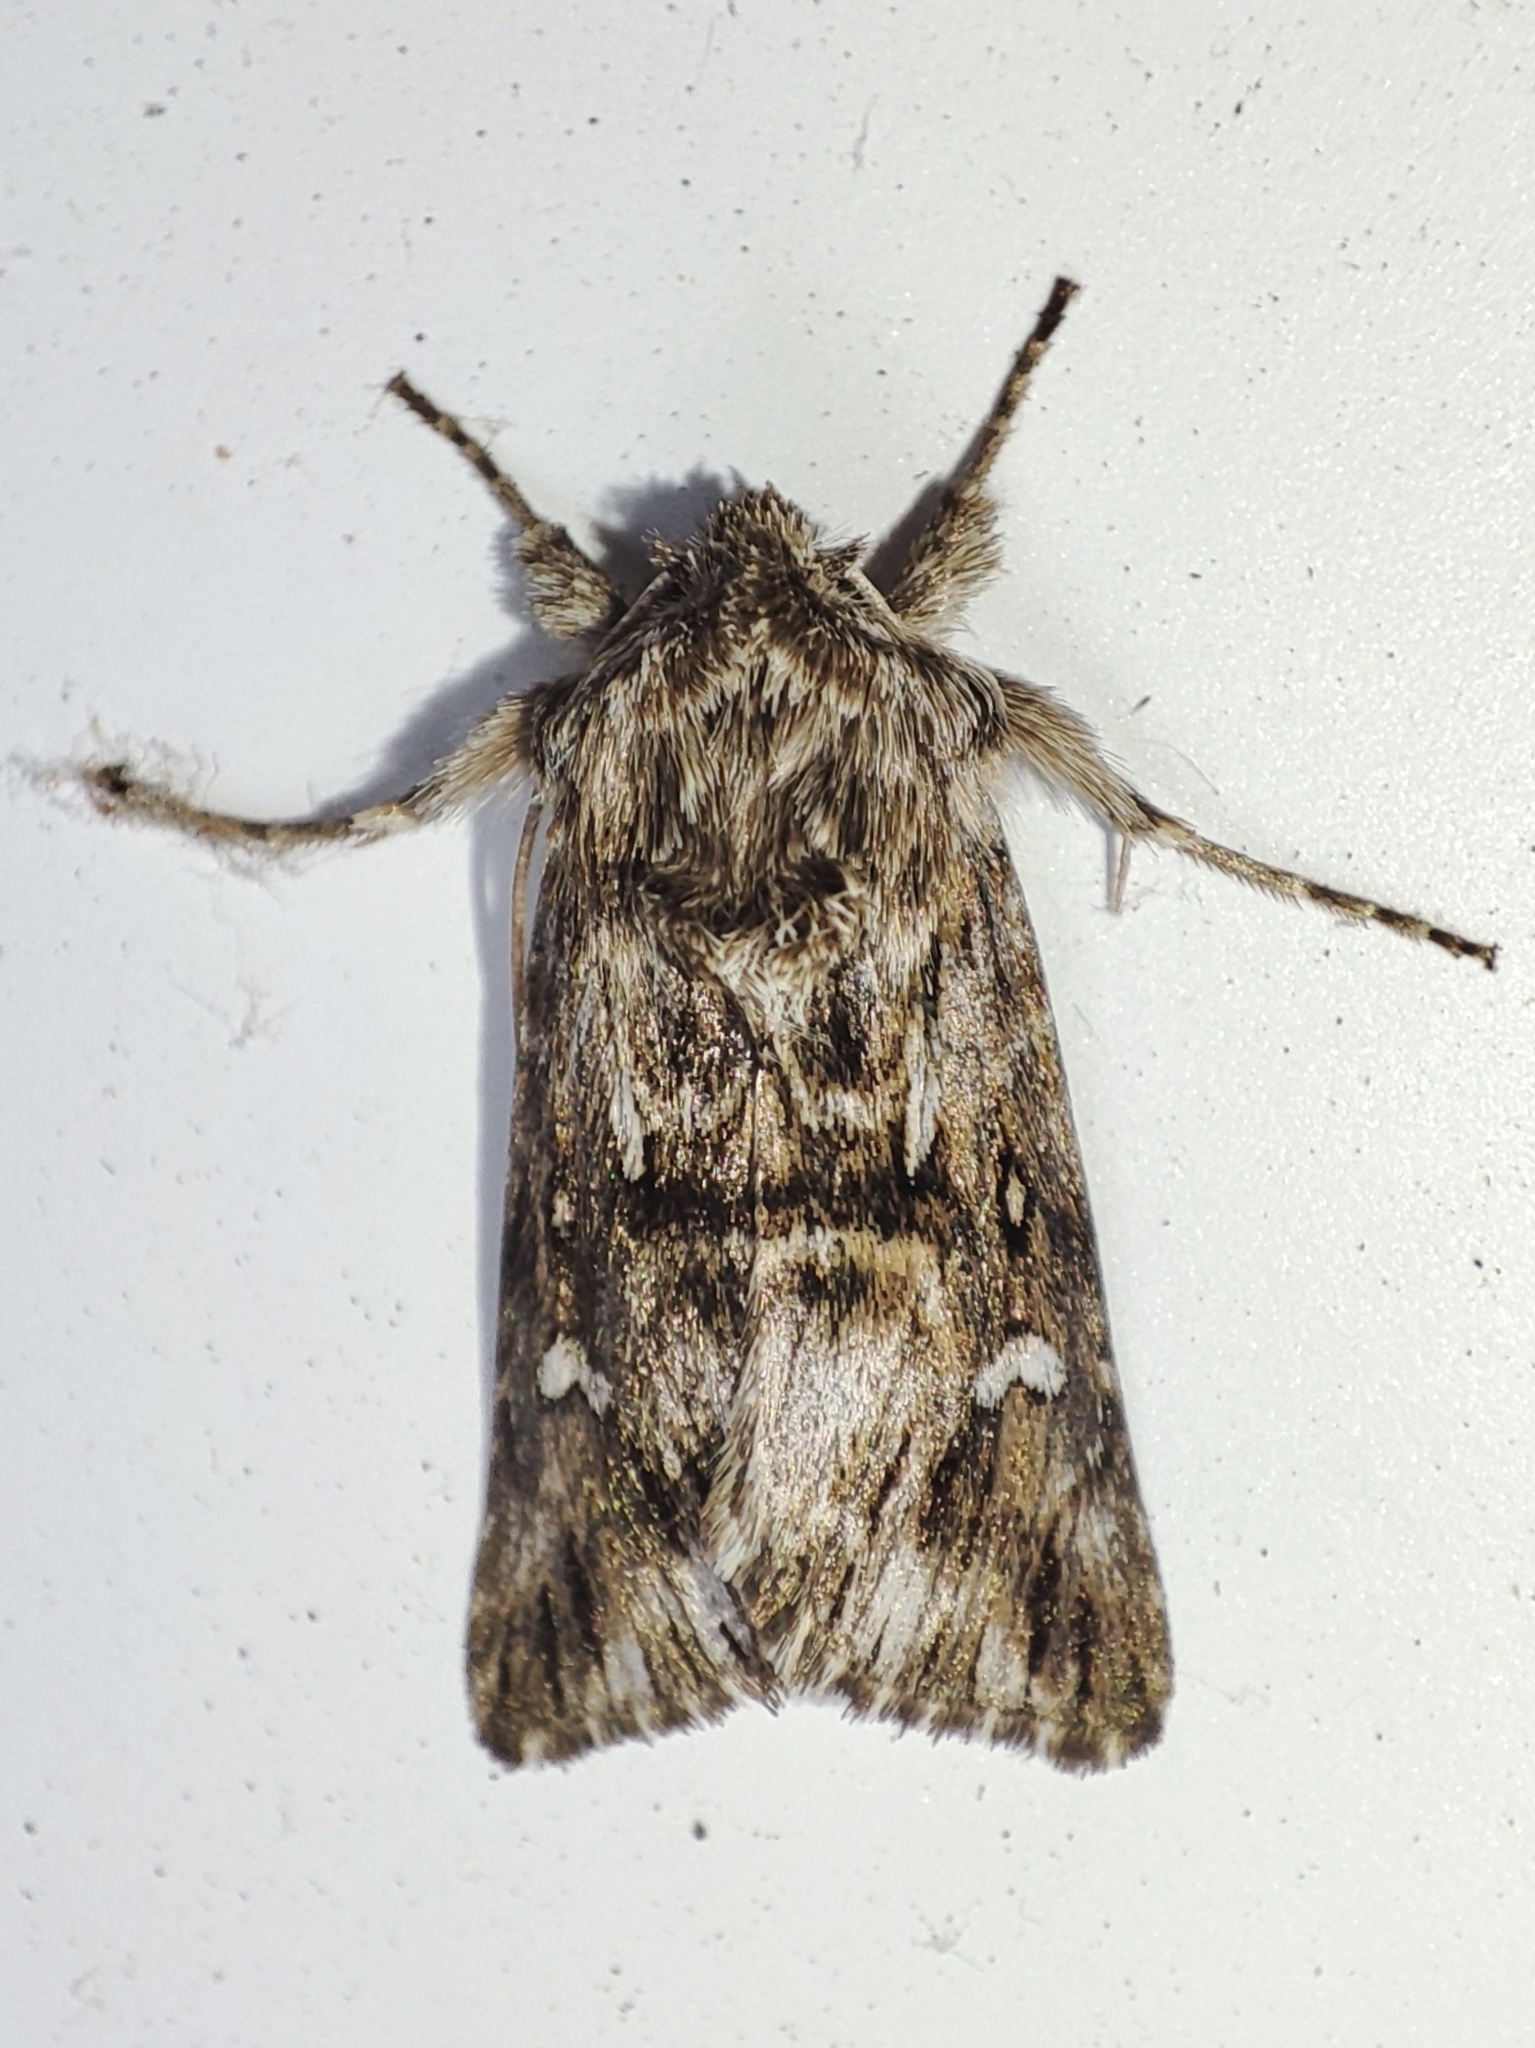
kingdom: Animalia
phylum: Arthropoda
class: Insecta
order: Lepidoptera
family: Noctuidae
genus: Calophasia
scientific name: Calophasia lunula
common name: Toadflax brocade
